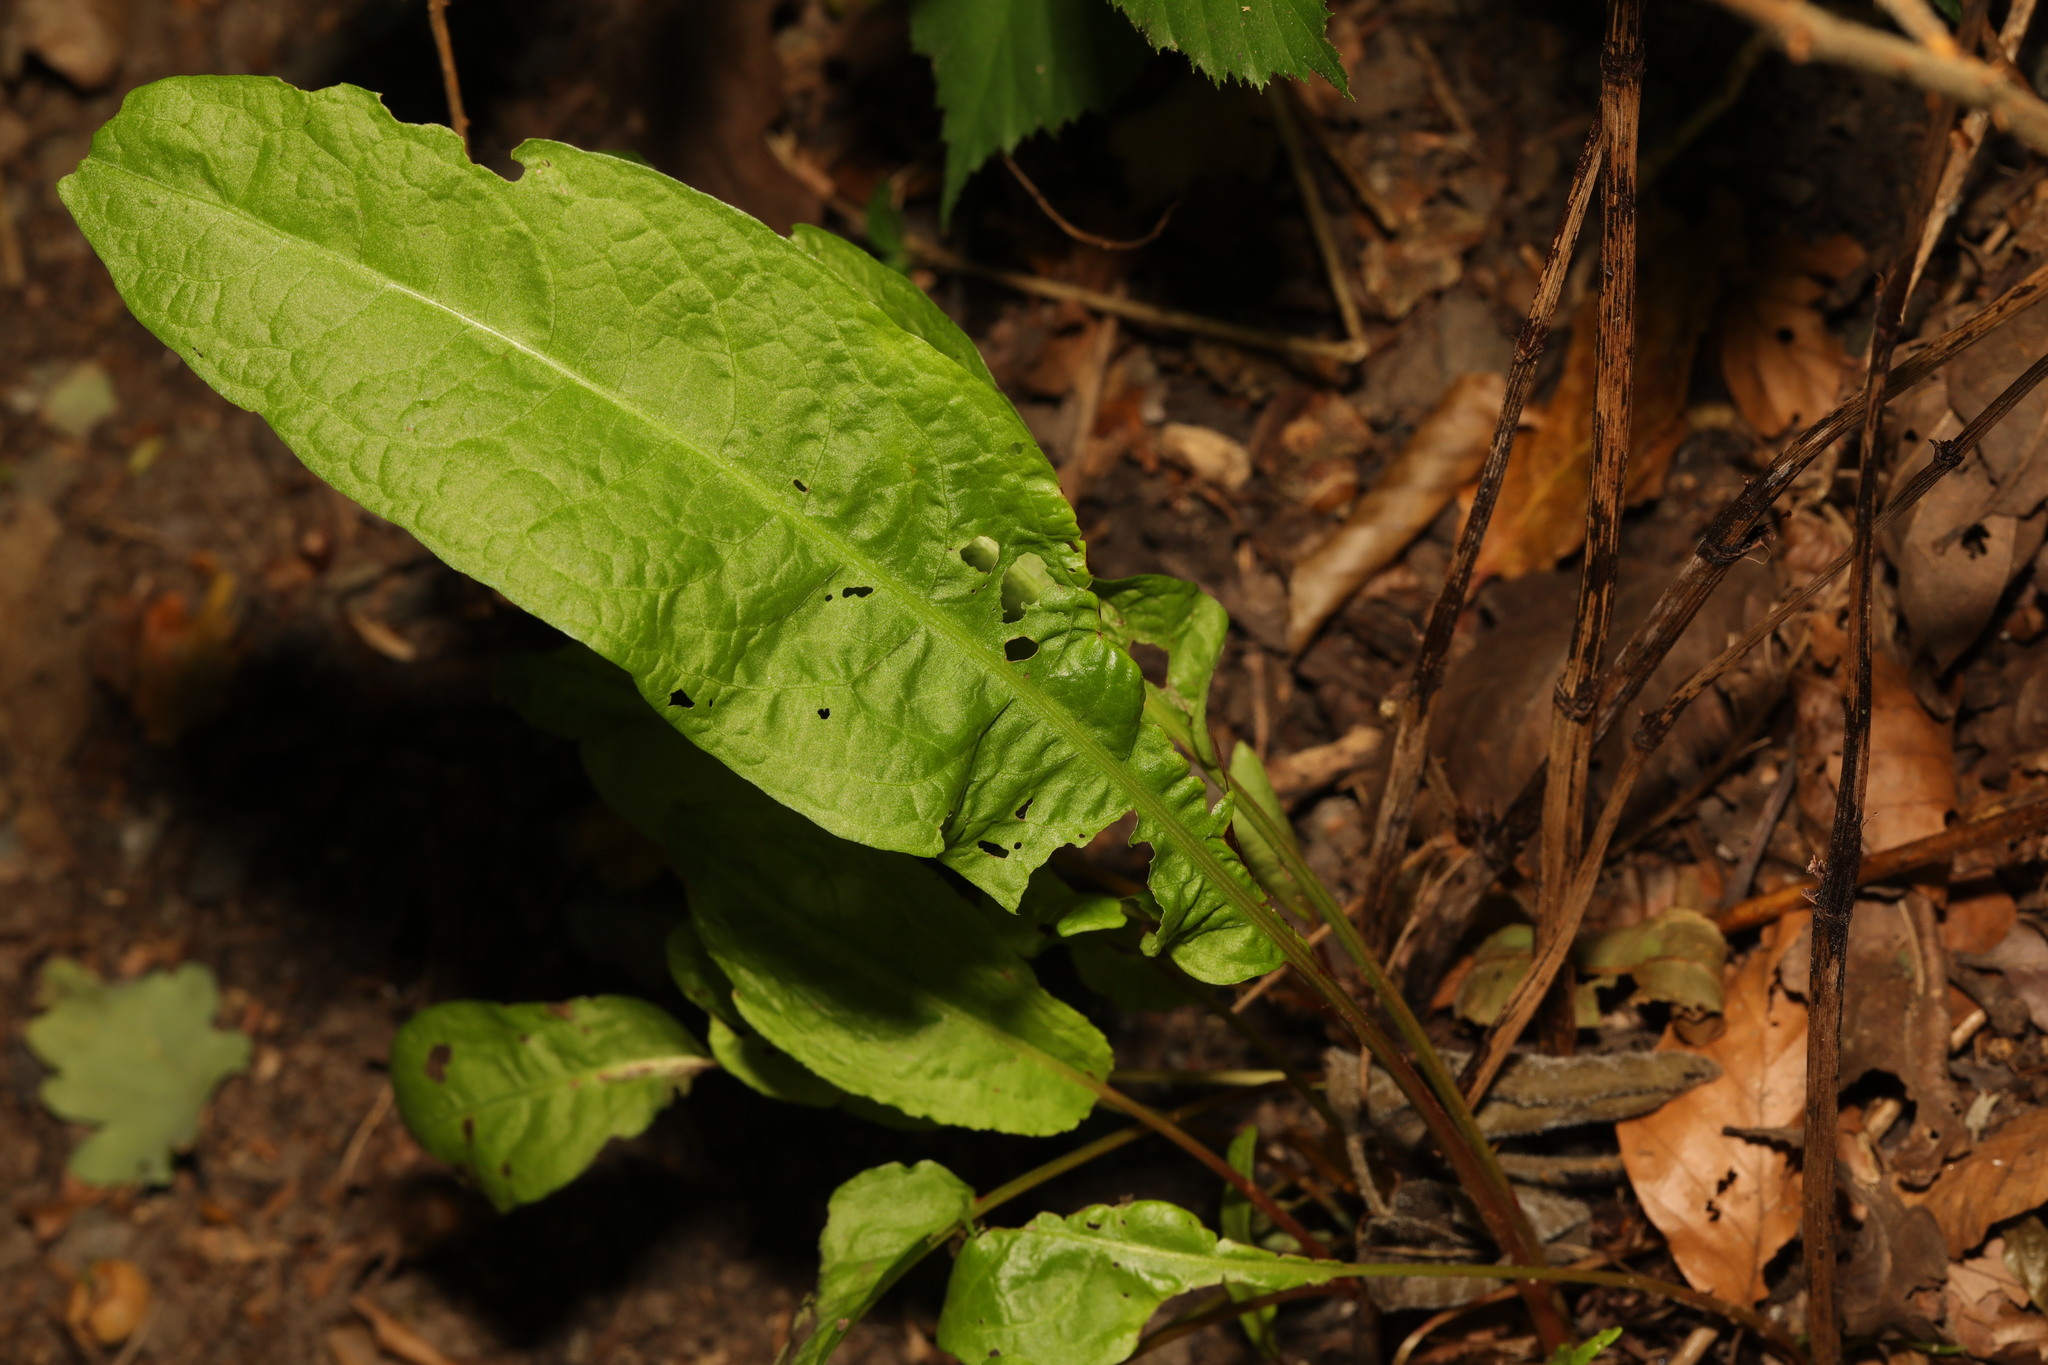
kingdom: Plantae
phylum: Tracheophyta
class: Magnoliopsida
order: Caryophyllales
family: Polygonaceae
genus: Rumex
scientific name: Rumex obtusifolius
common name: Bitter dock
